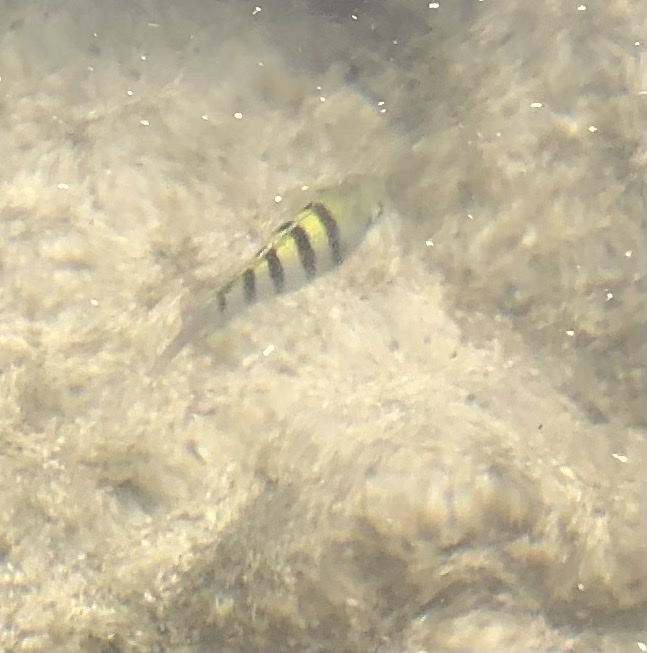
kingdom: Animalia
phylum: Chordata
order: Perciformes
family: Pomacentridae
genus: Abudefduf
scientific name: Abudefduf saxatilis
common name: Sergeant major
